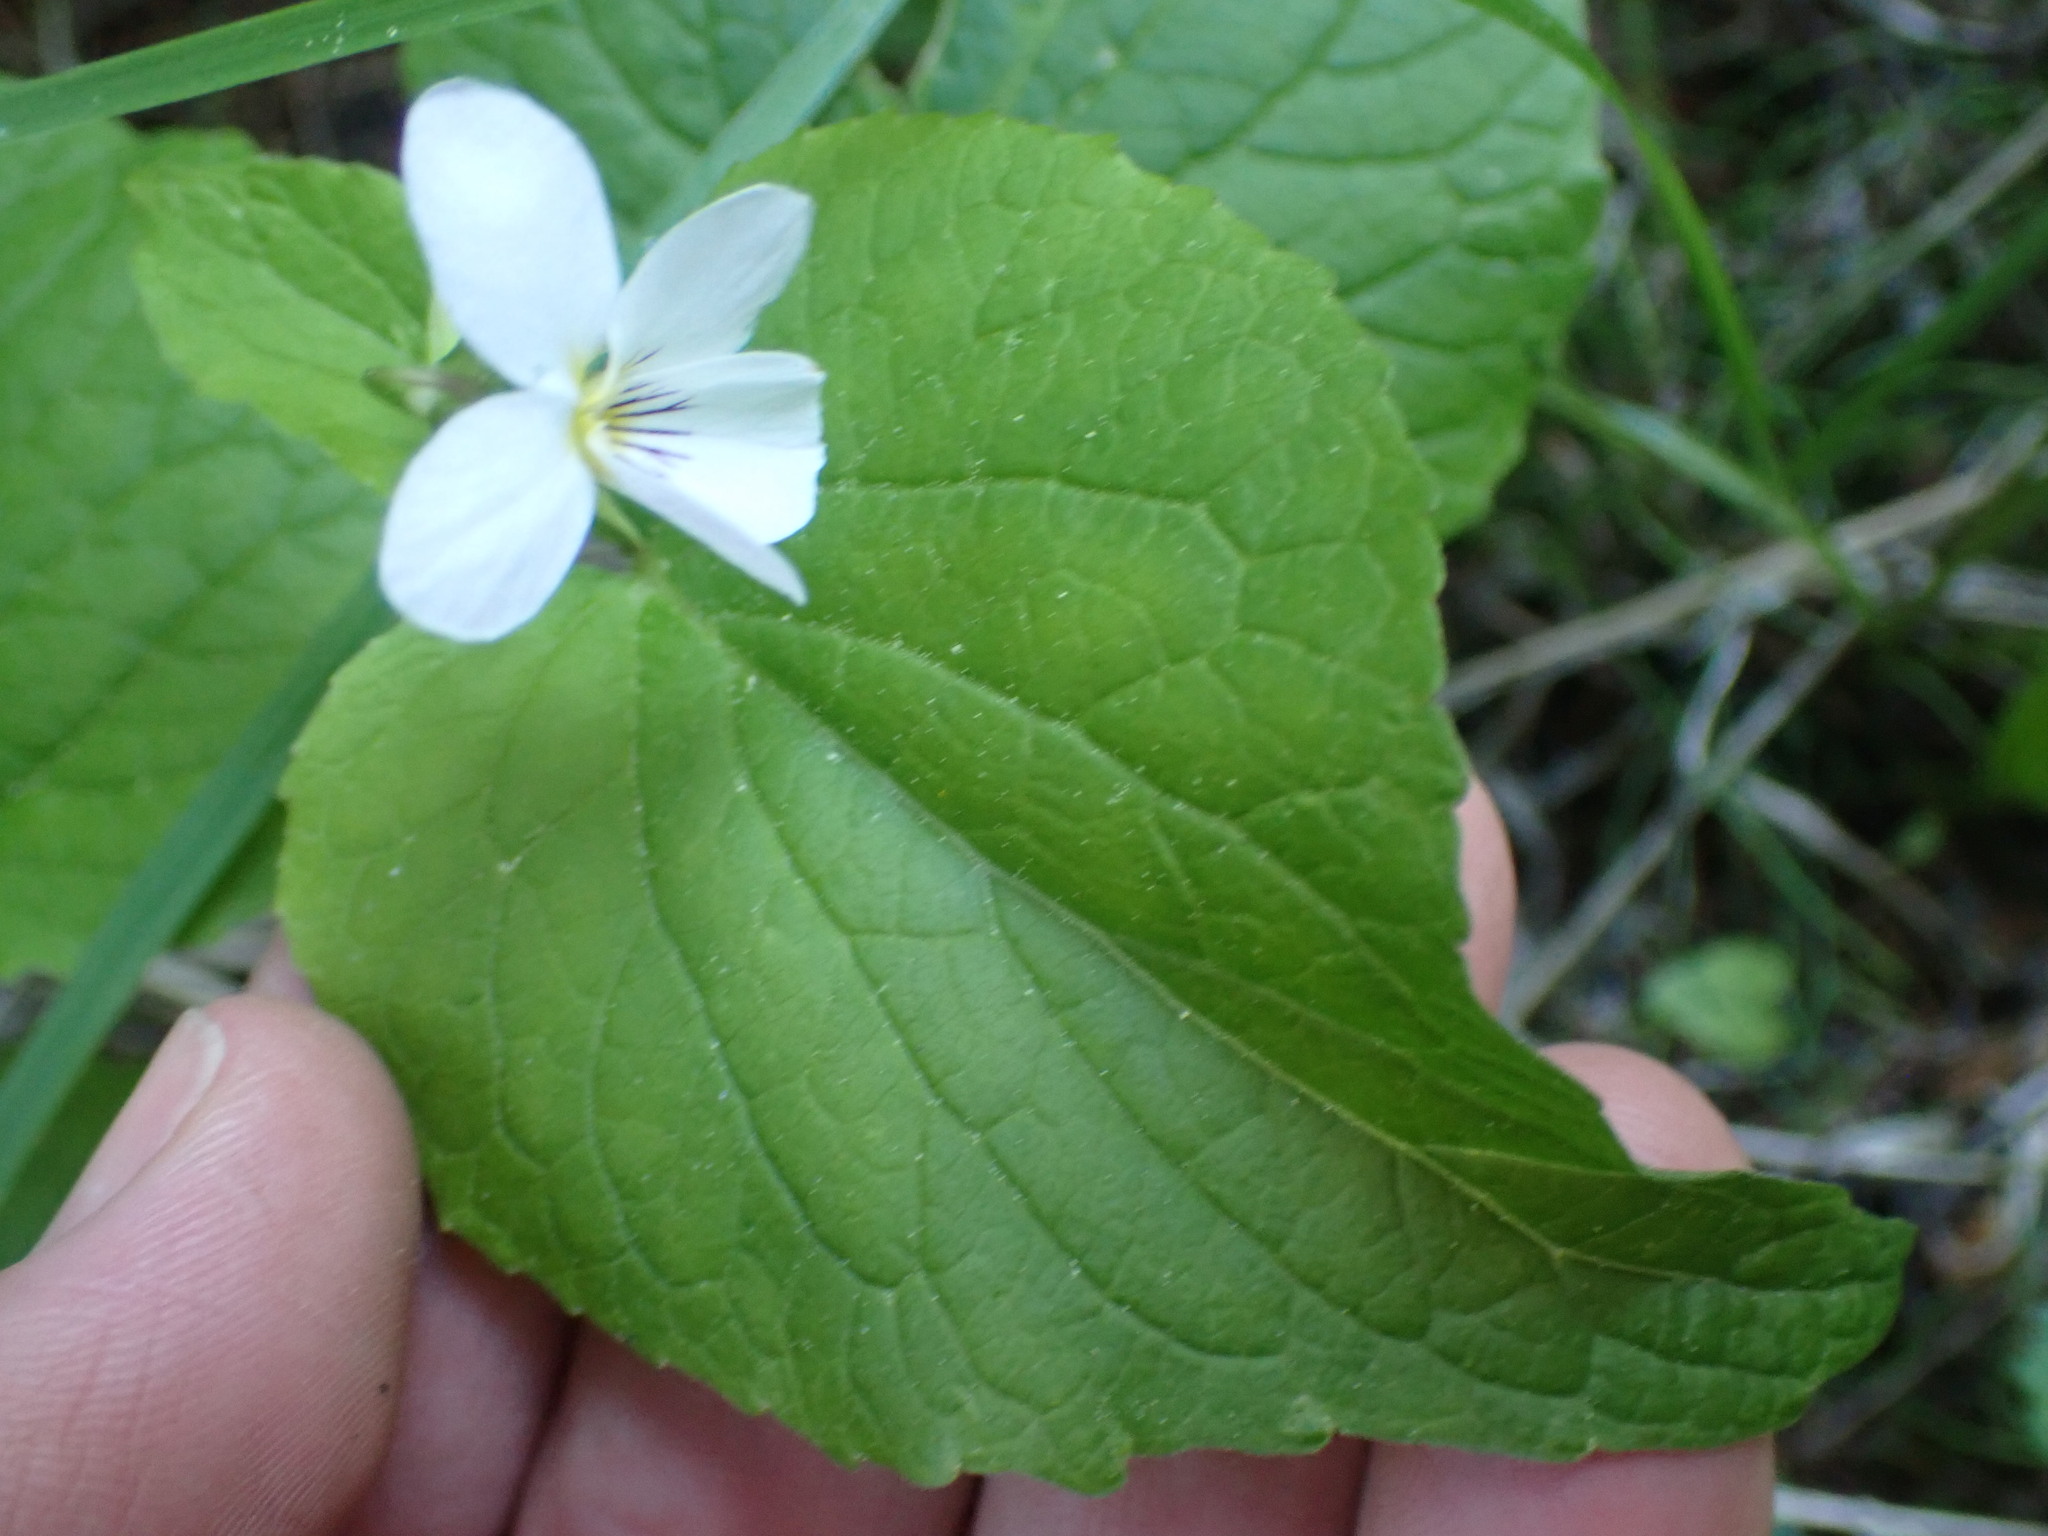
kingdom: Plantae
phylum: Tracheophyta
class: Magnoliopsida
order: Malpighiales
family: Violaceae
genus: Viola
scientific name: Viola canadensis
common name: Canada violet
